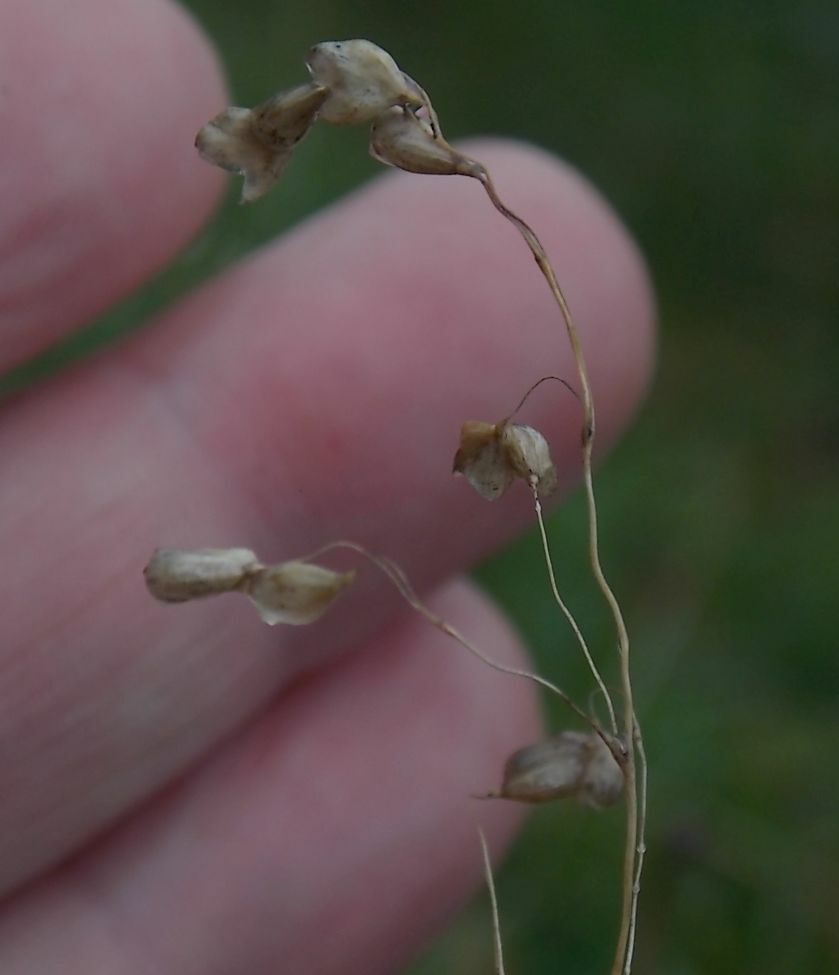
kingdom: Plantae
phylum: Tracheophyta
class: Liliopsida
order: Poales
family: Poaceae
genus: Briza
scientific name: Briza media
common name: Quaking grass
